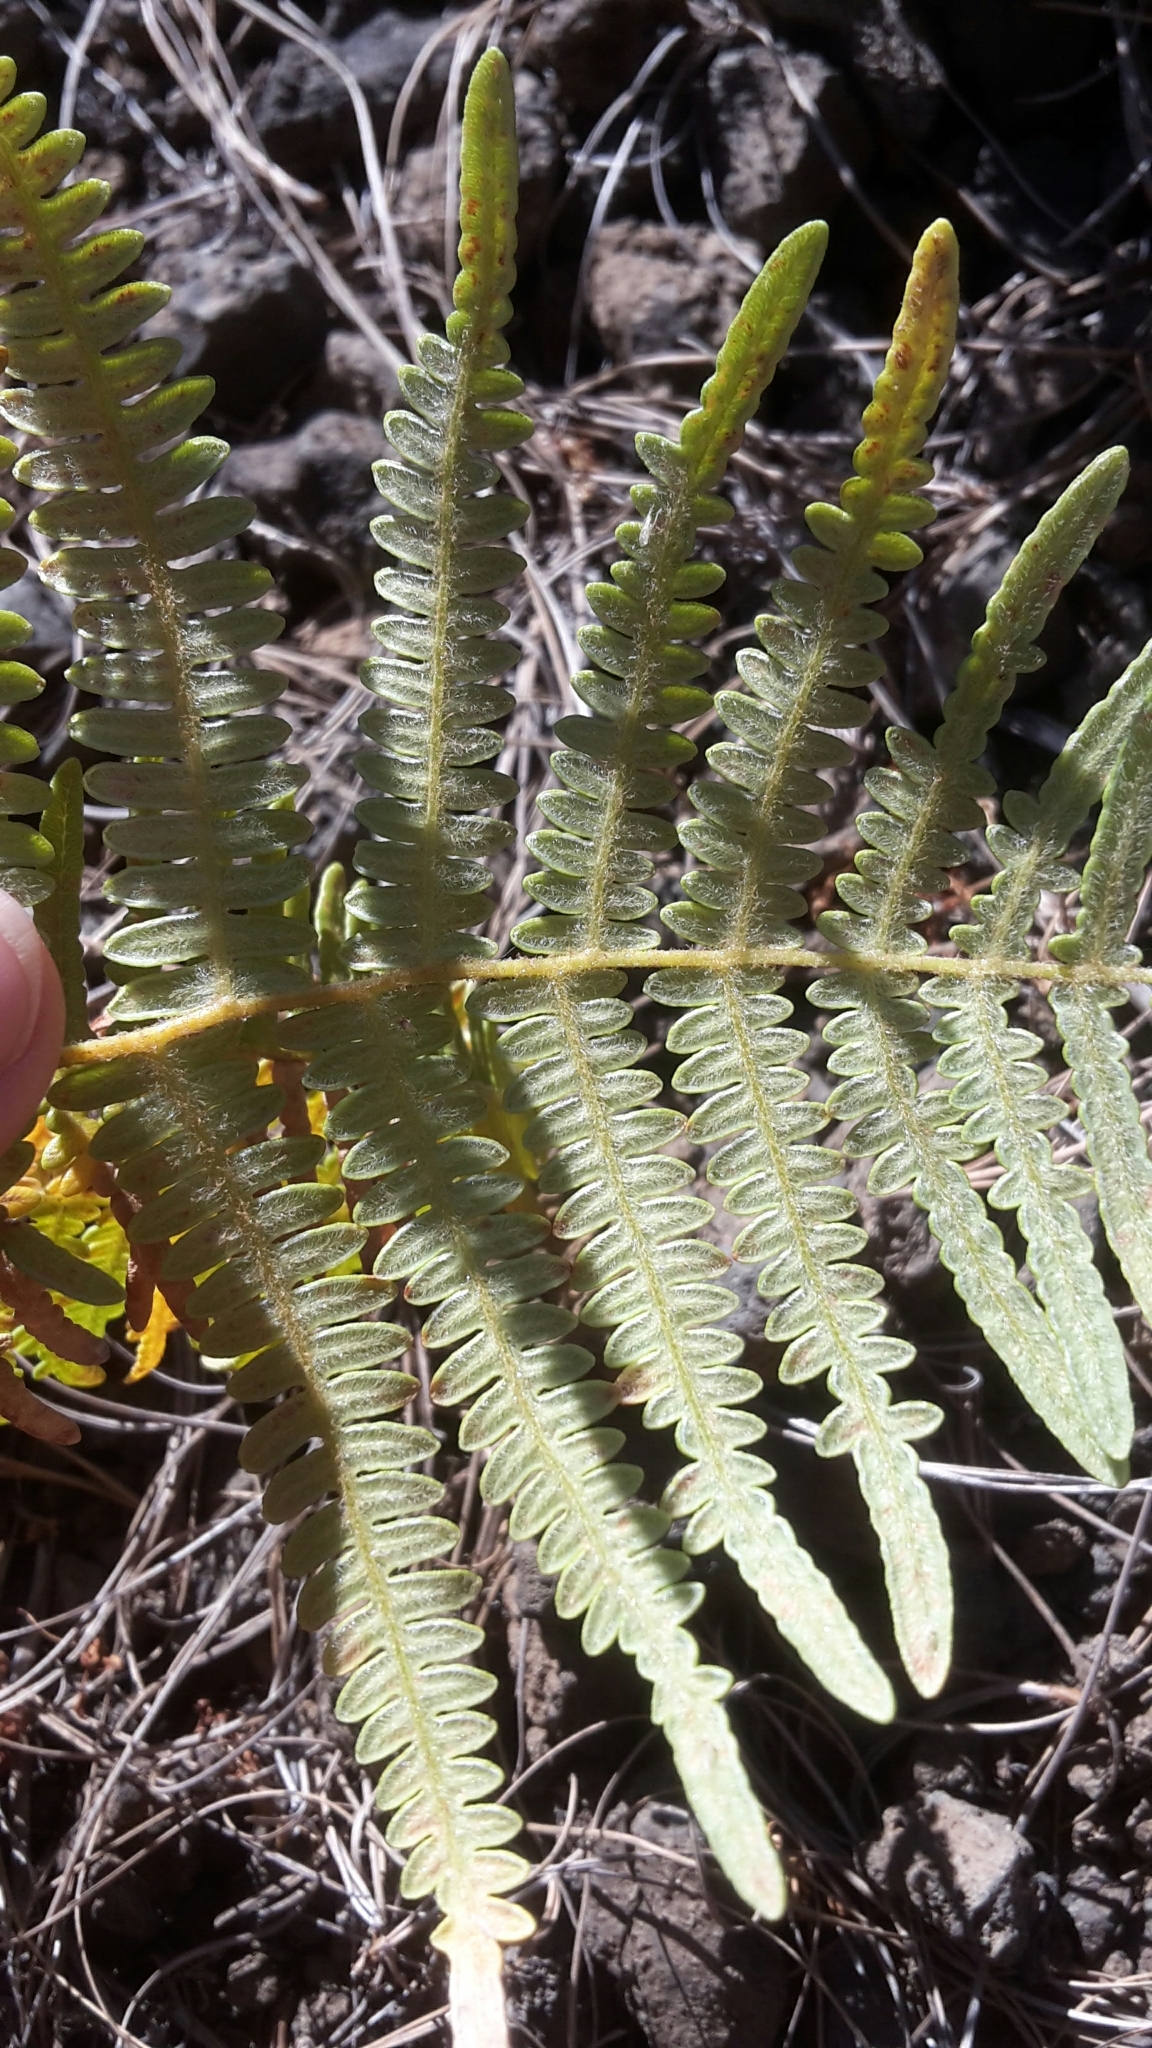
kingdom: Plantae
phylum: Tracheophyta
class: Polypodiopsida
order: Polypodiales
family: Dennstaedtiaceae
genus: Pteridium
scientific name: Pteridium aquilinum
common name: Bracken
